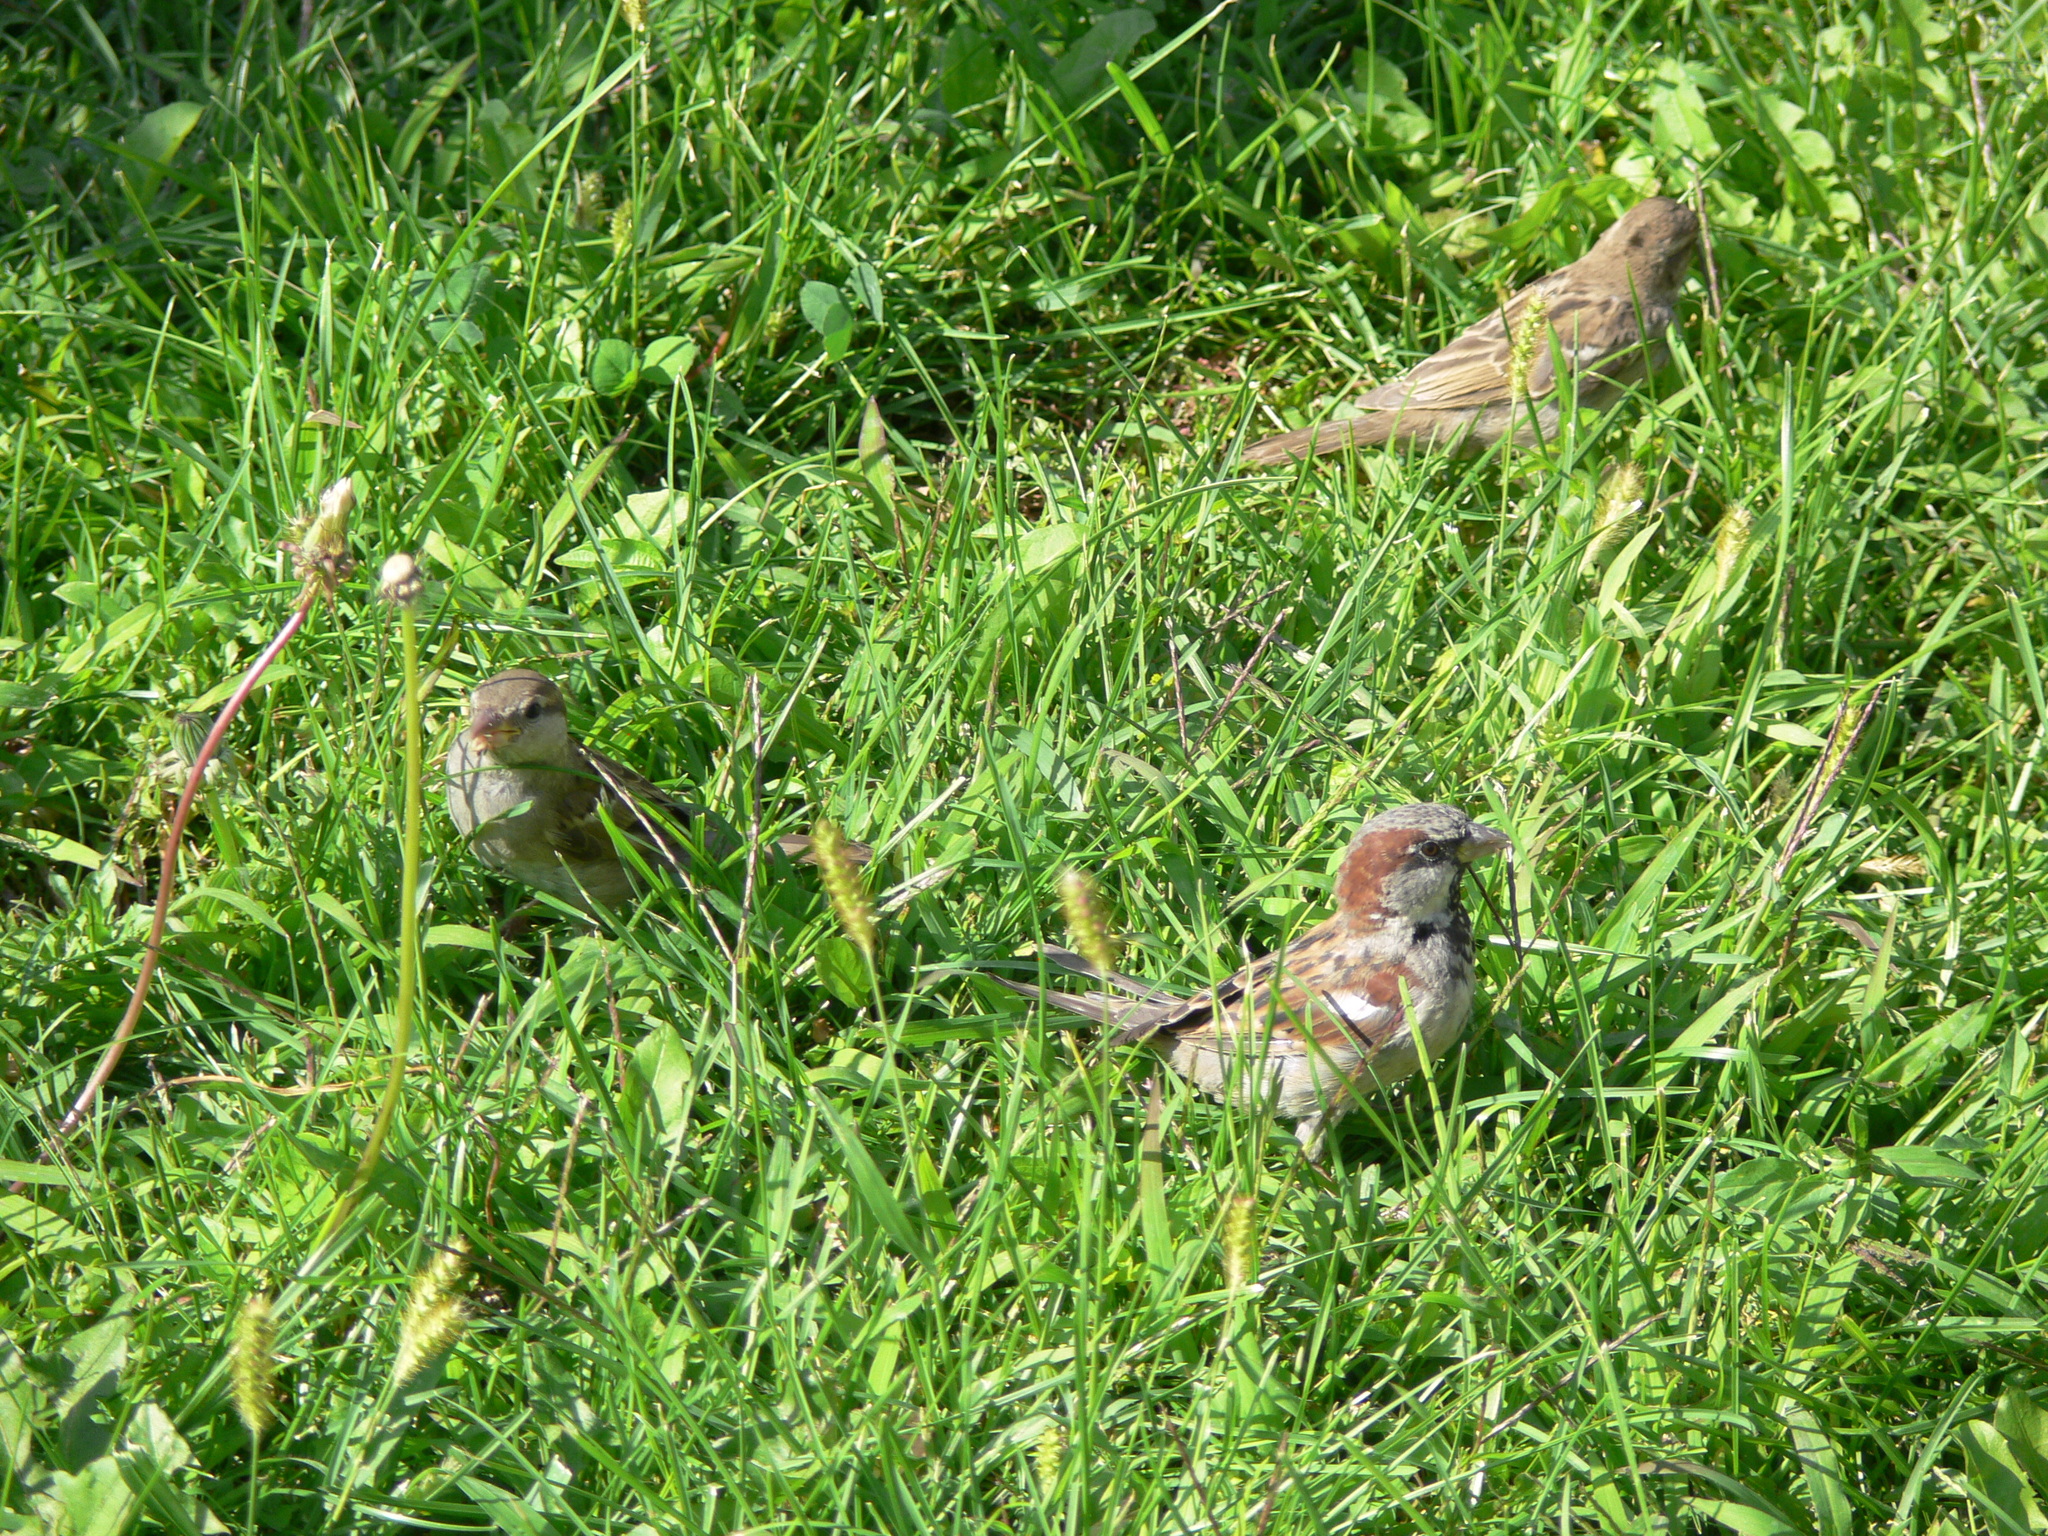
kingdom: Animalia
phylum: Chordata
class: Aves
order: Passeriformes
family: Passeridae
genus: Passer
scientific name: Passer domesticus
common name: House sparrow
